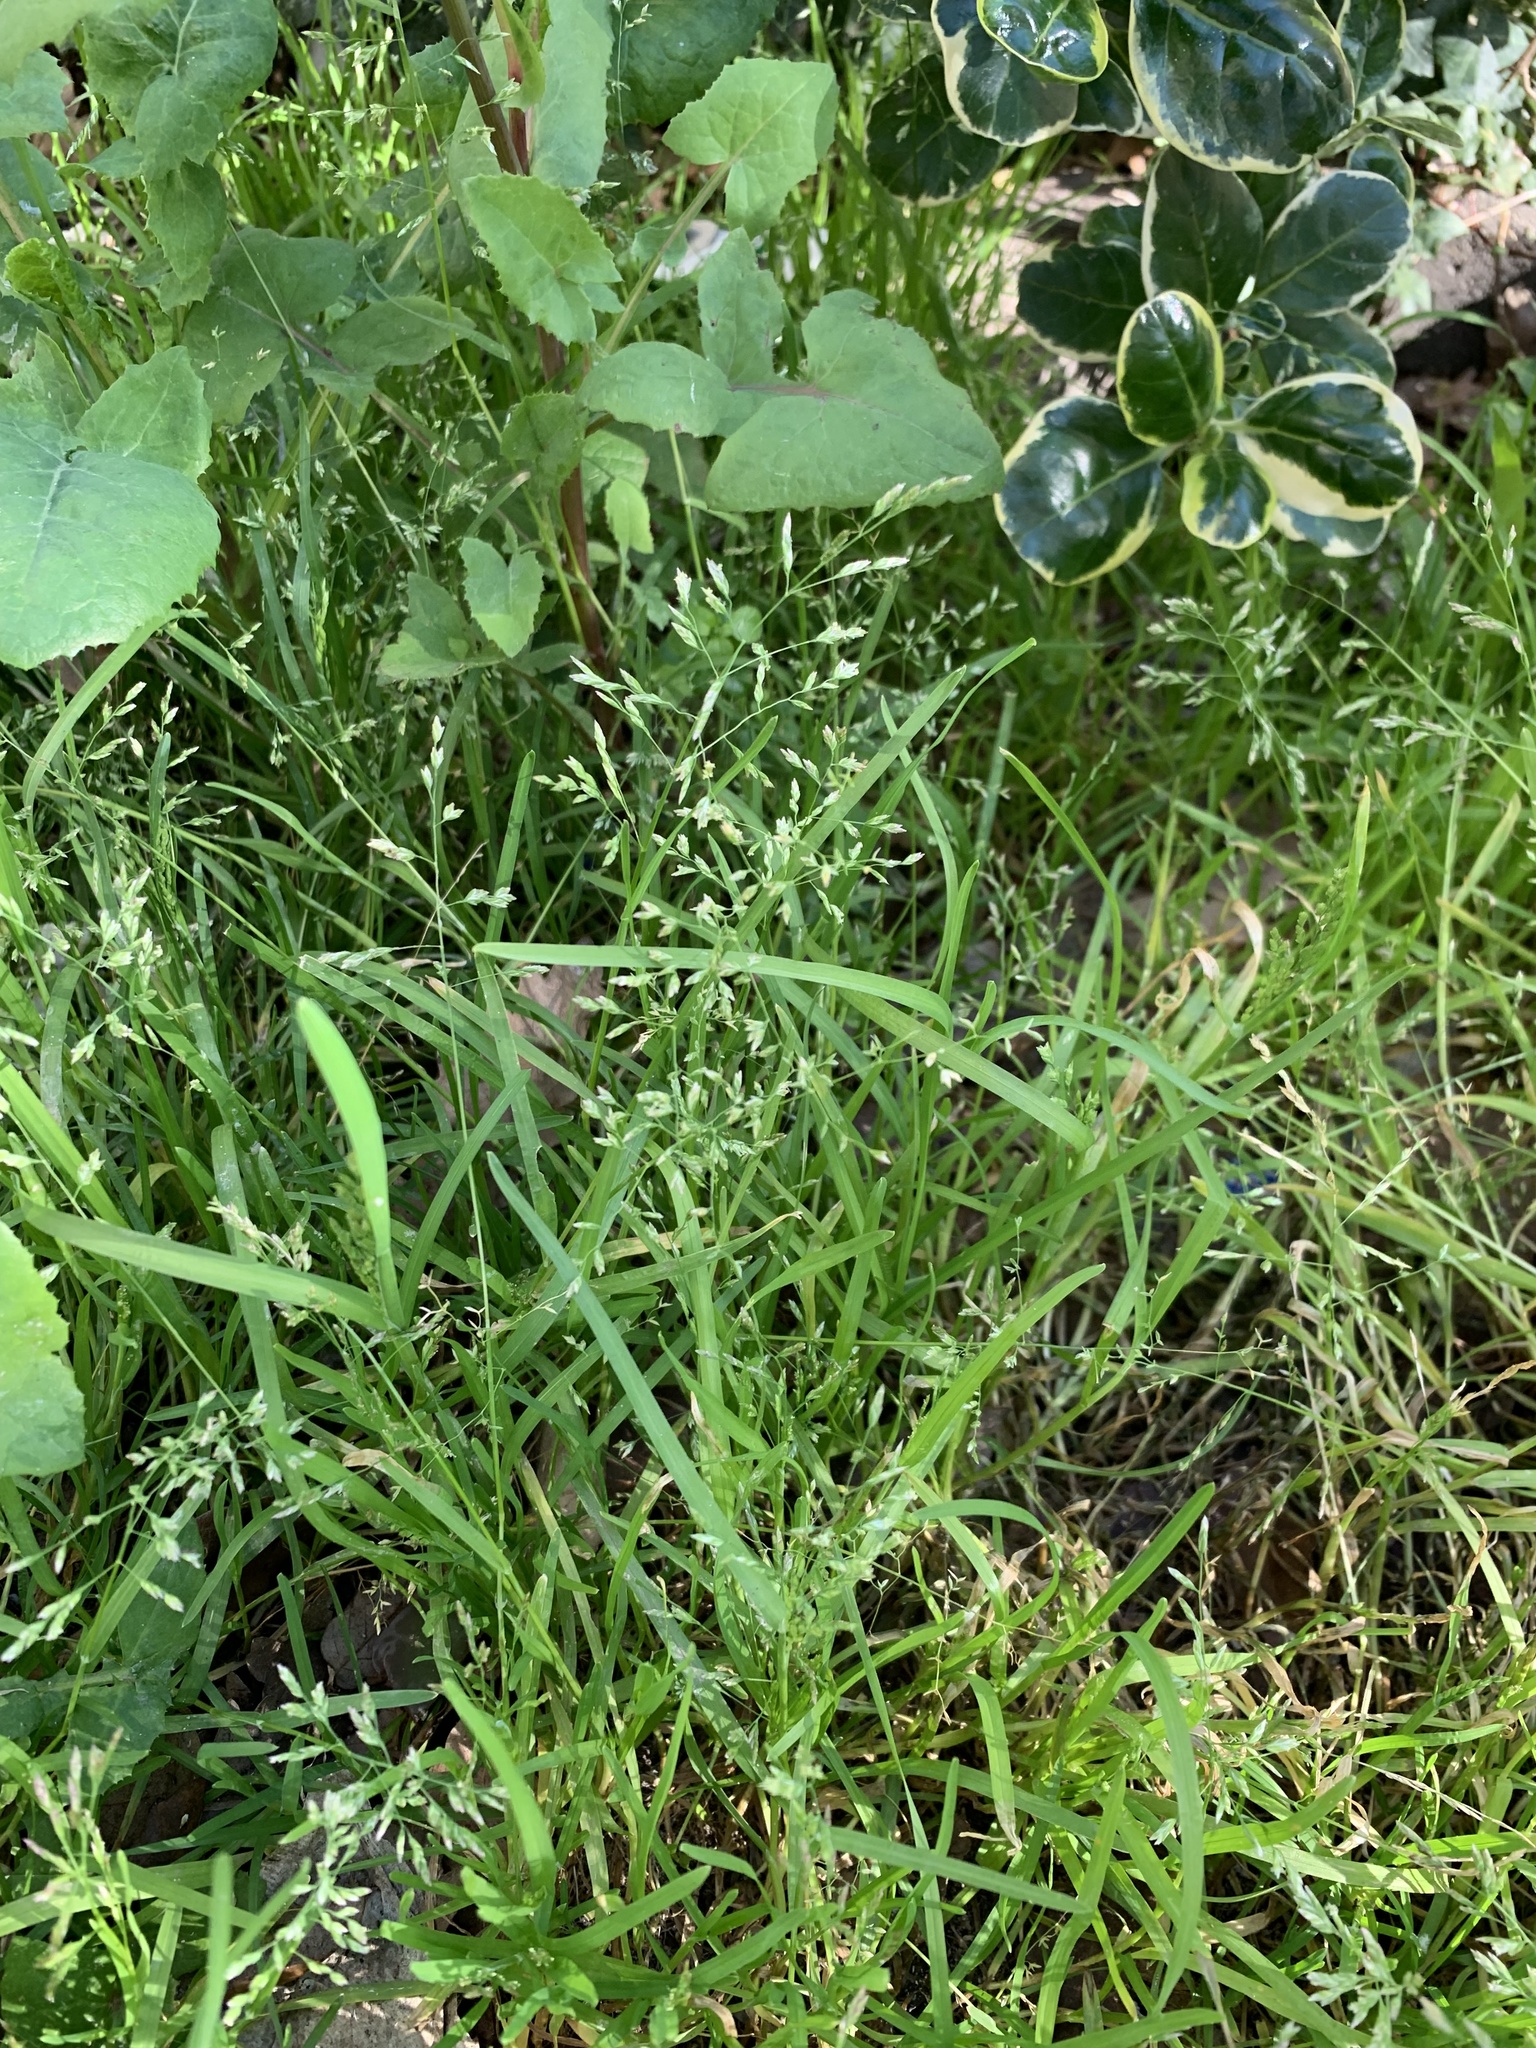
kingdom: Plantae
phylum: Tracheophyta
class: Liliopsida
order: Poales
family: Poaceae
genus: Poa
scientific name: Poa annua
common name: Annual bluegrass
